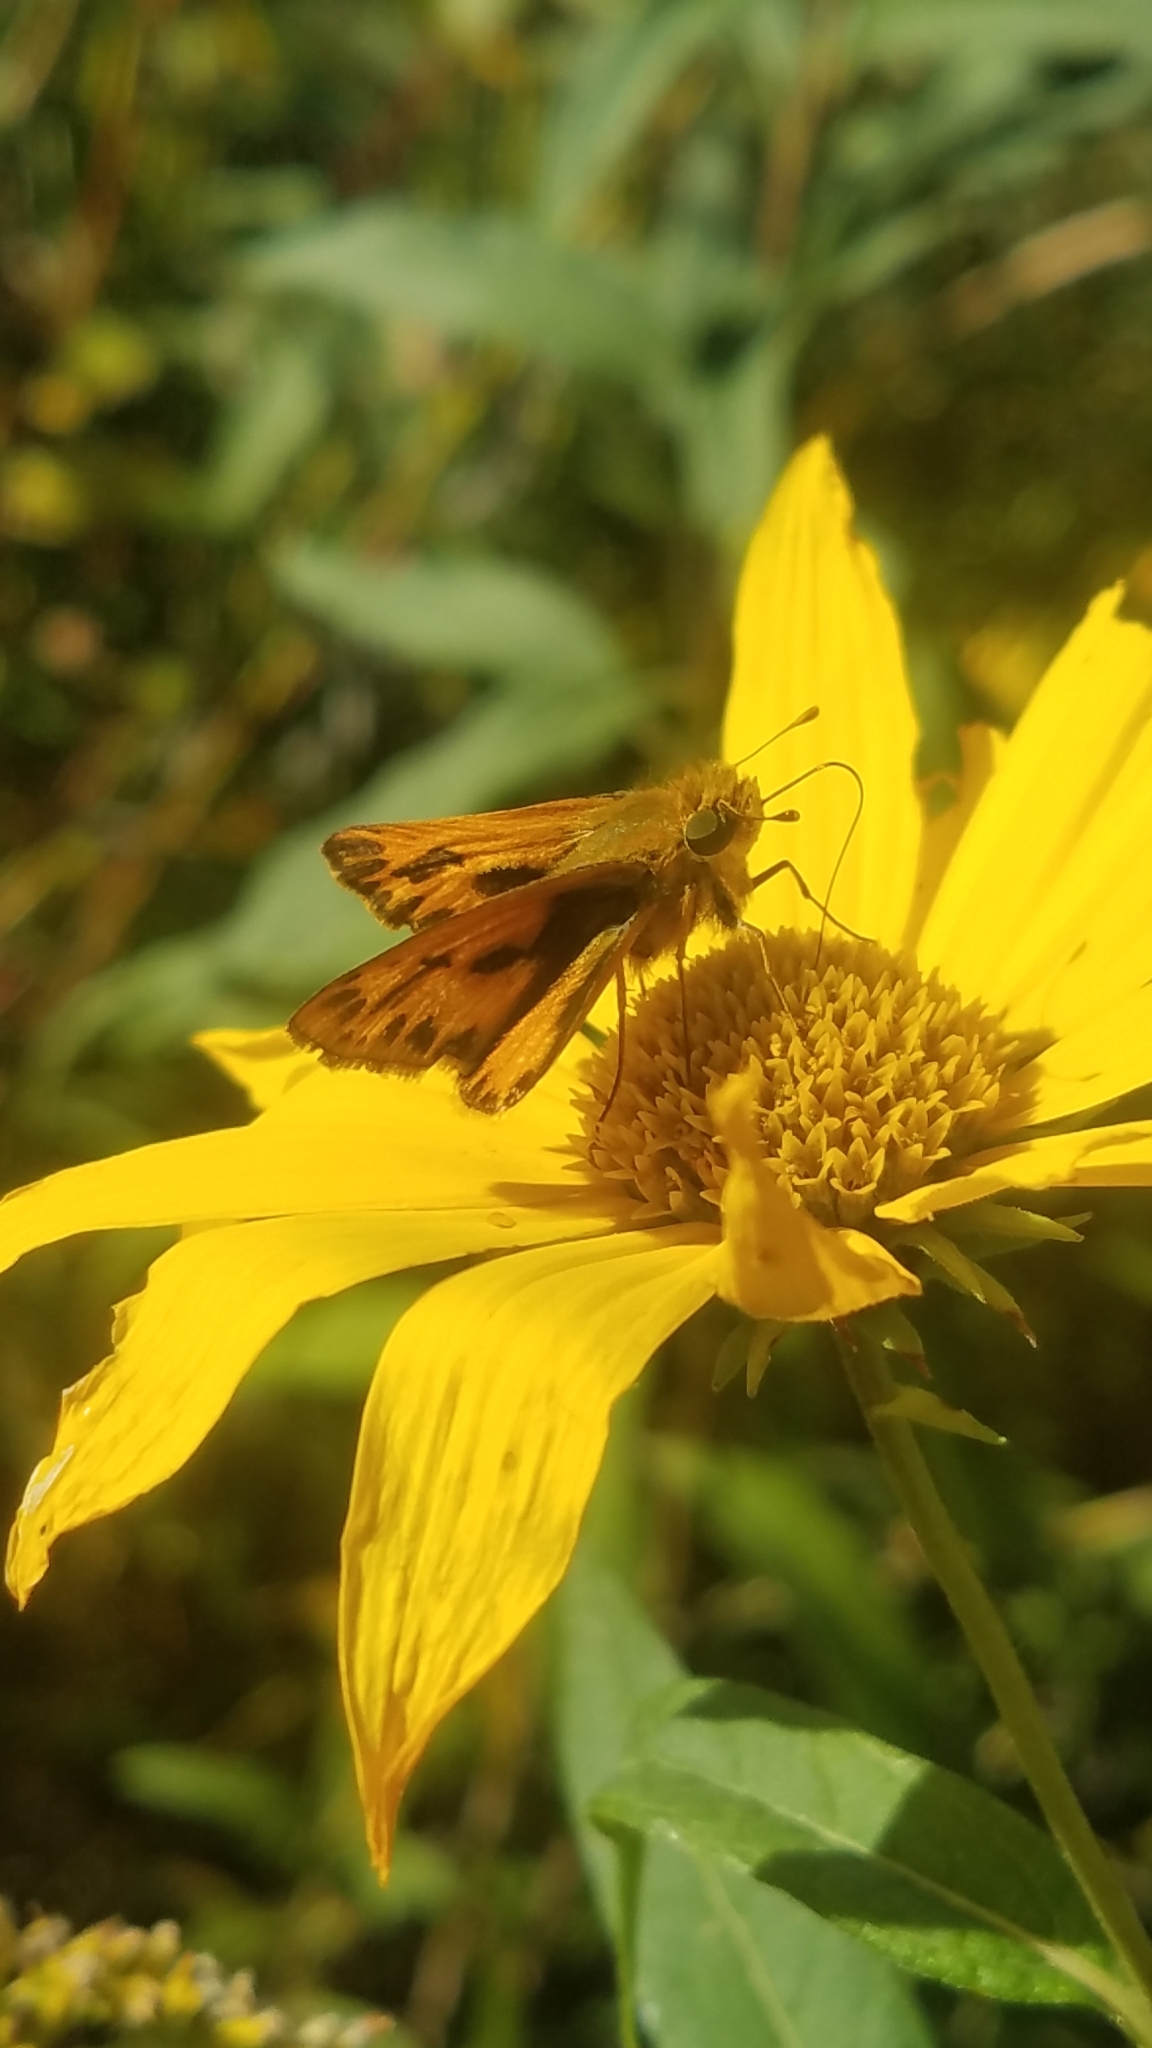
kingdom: Animalia
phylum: Arthropoda
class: Insecta
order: Lepidoptera
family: Hesperiidae
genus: Hylephila
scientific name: Hylephila phyleus
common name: Fiery skipper
